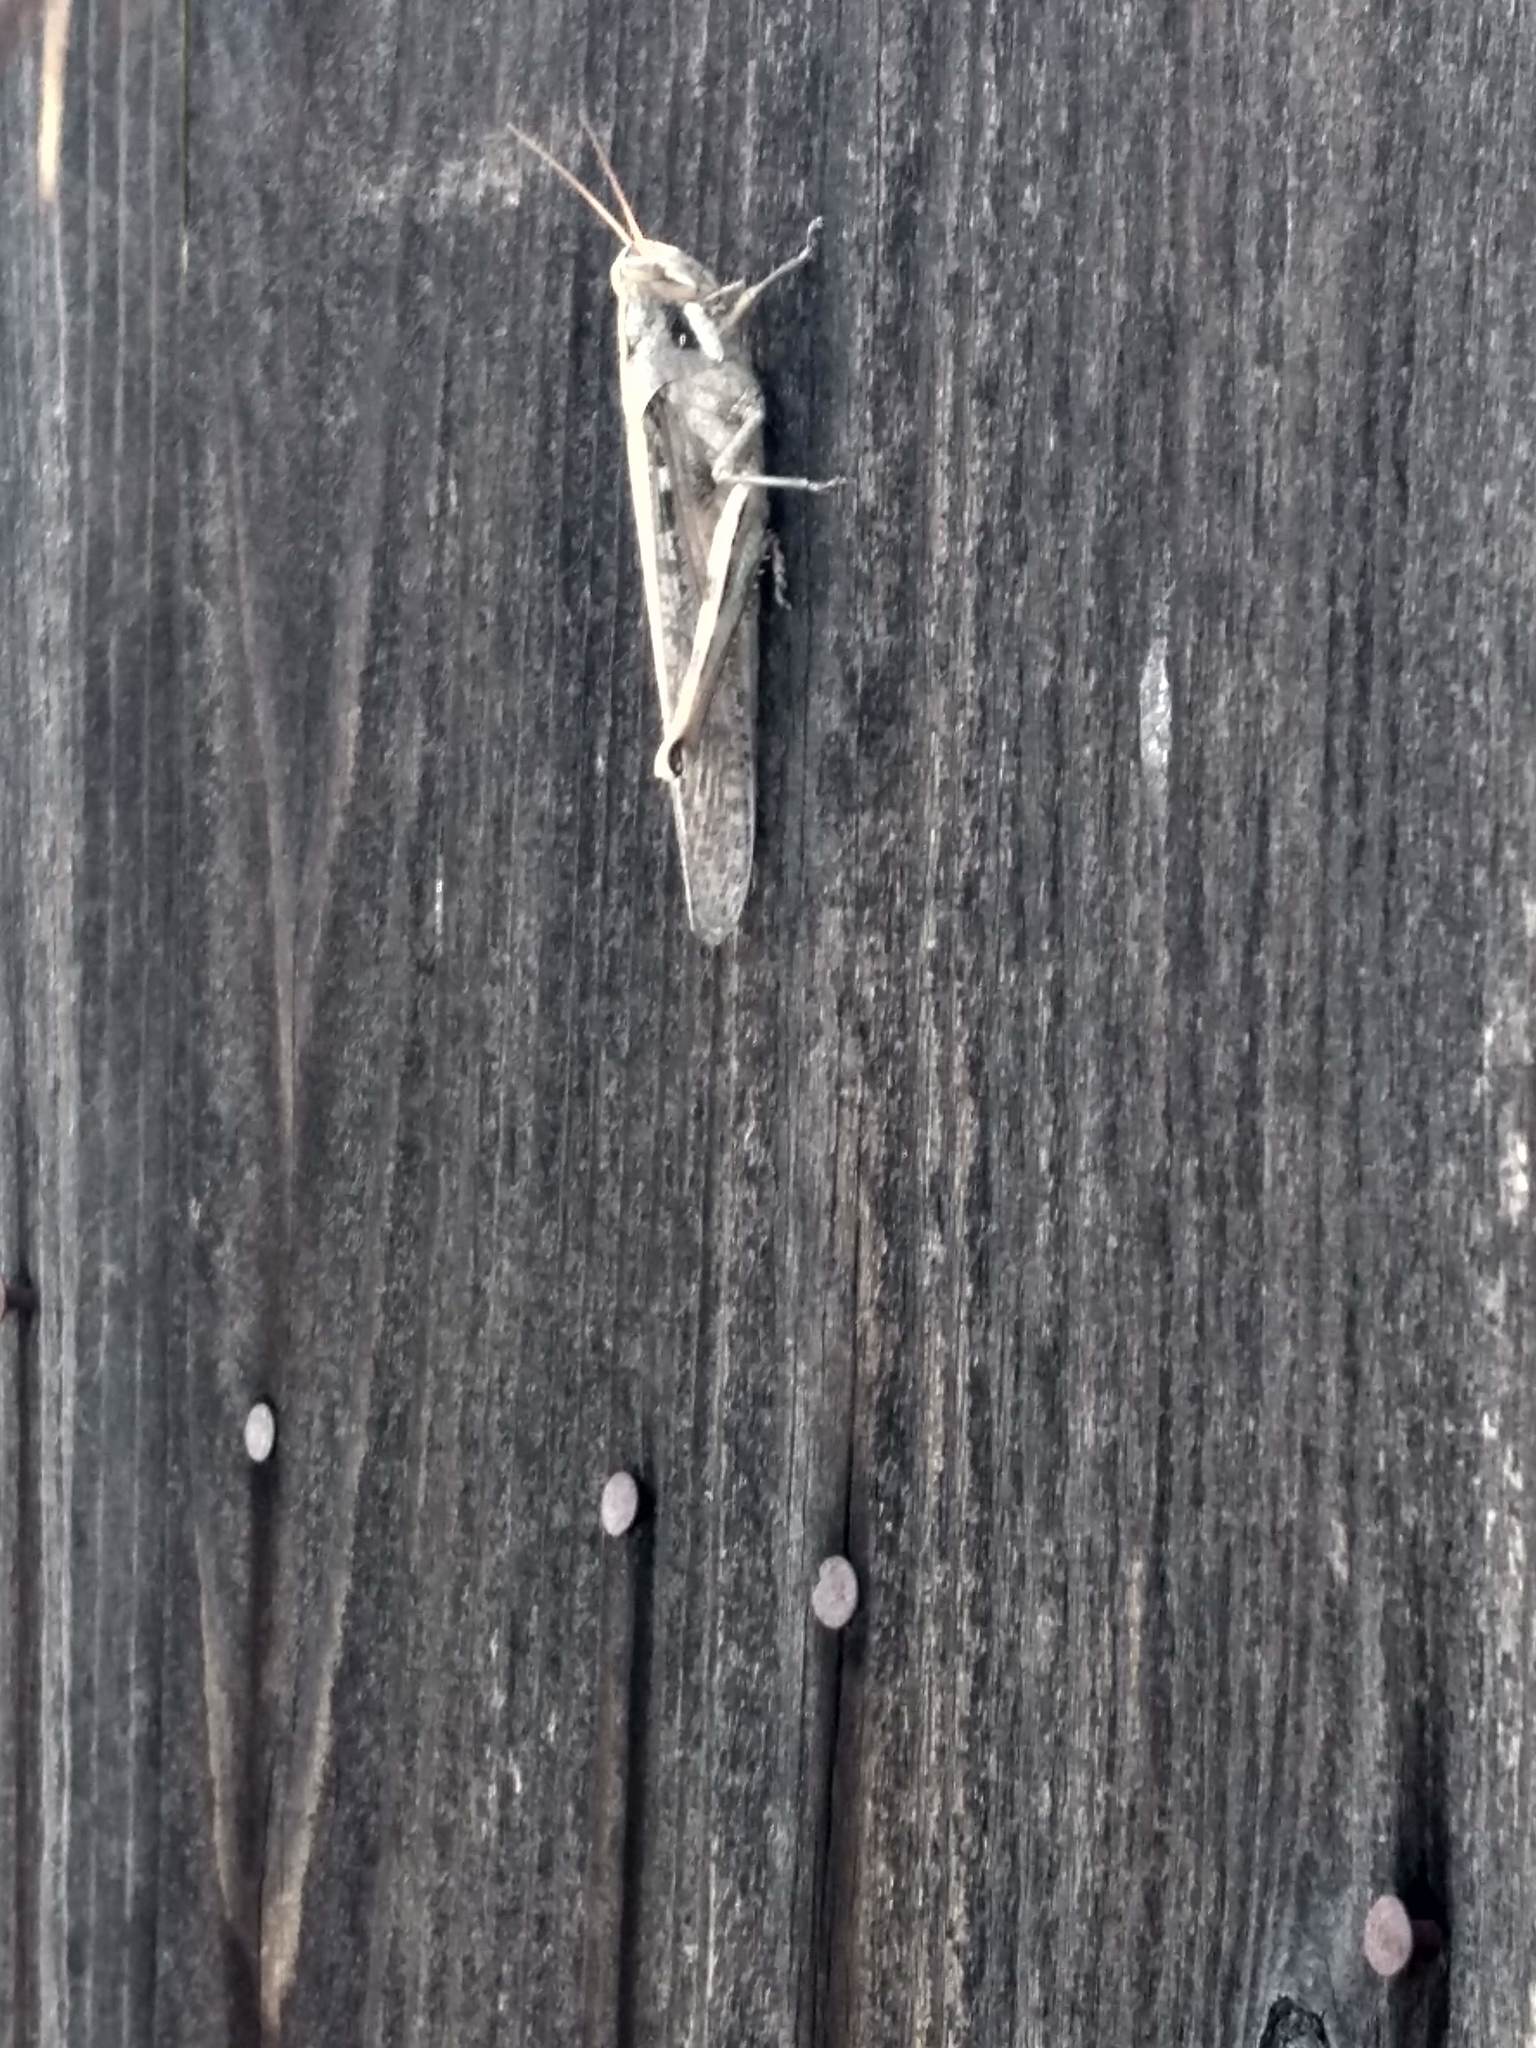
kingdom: Animalia
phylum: Arthropoda
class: Insecta
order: Orthoptera
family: Acrididae
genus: Schistocerca
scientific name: Schistocerca nitens
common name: Vagrant grasshopper
